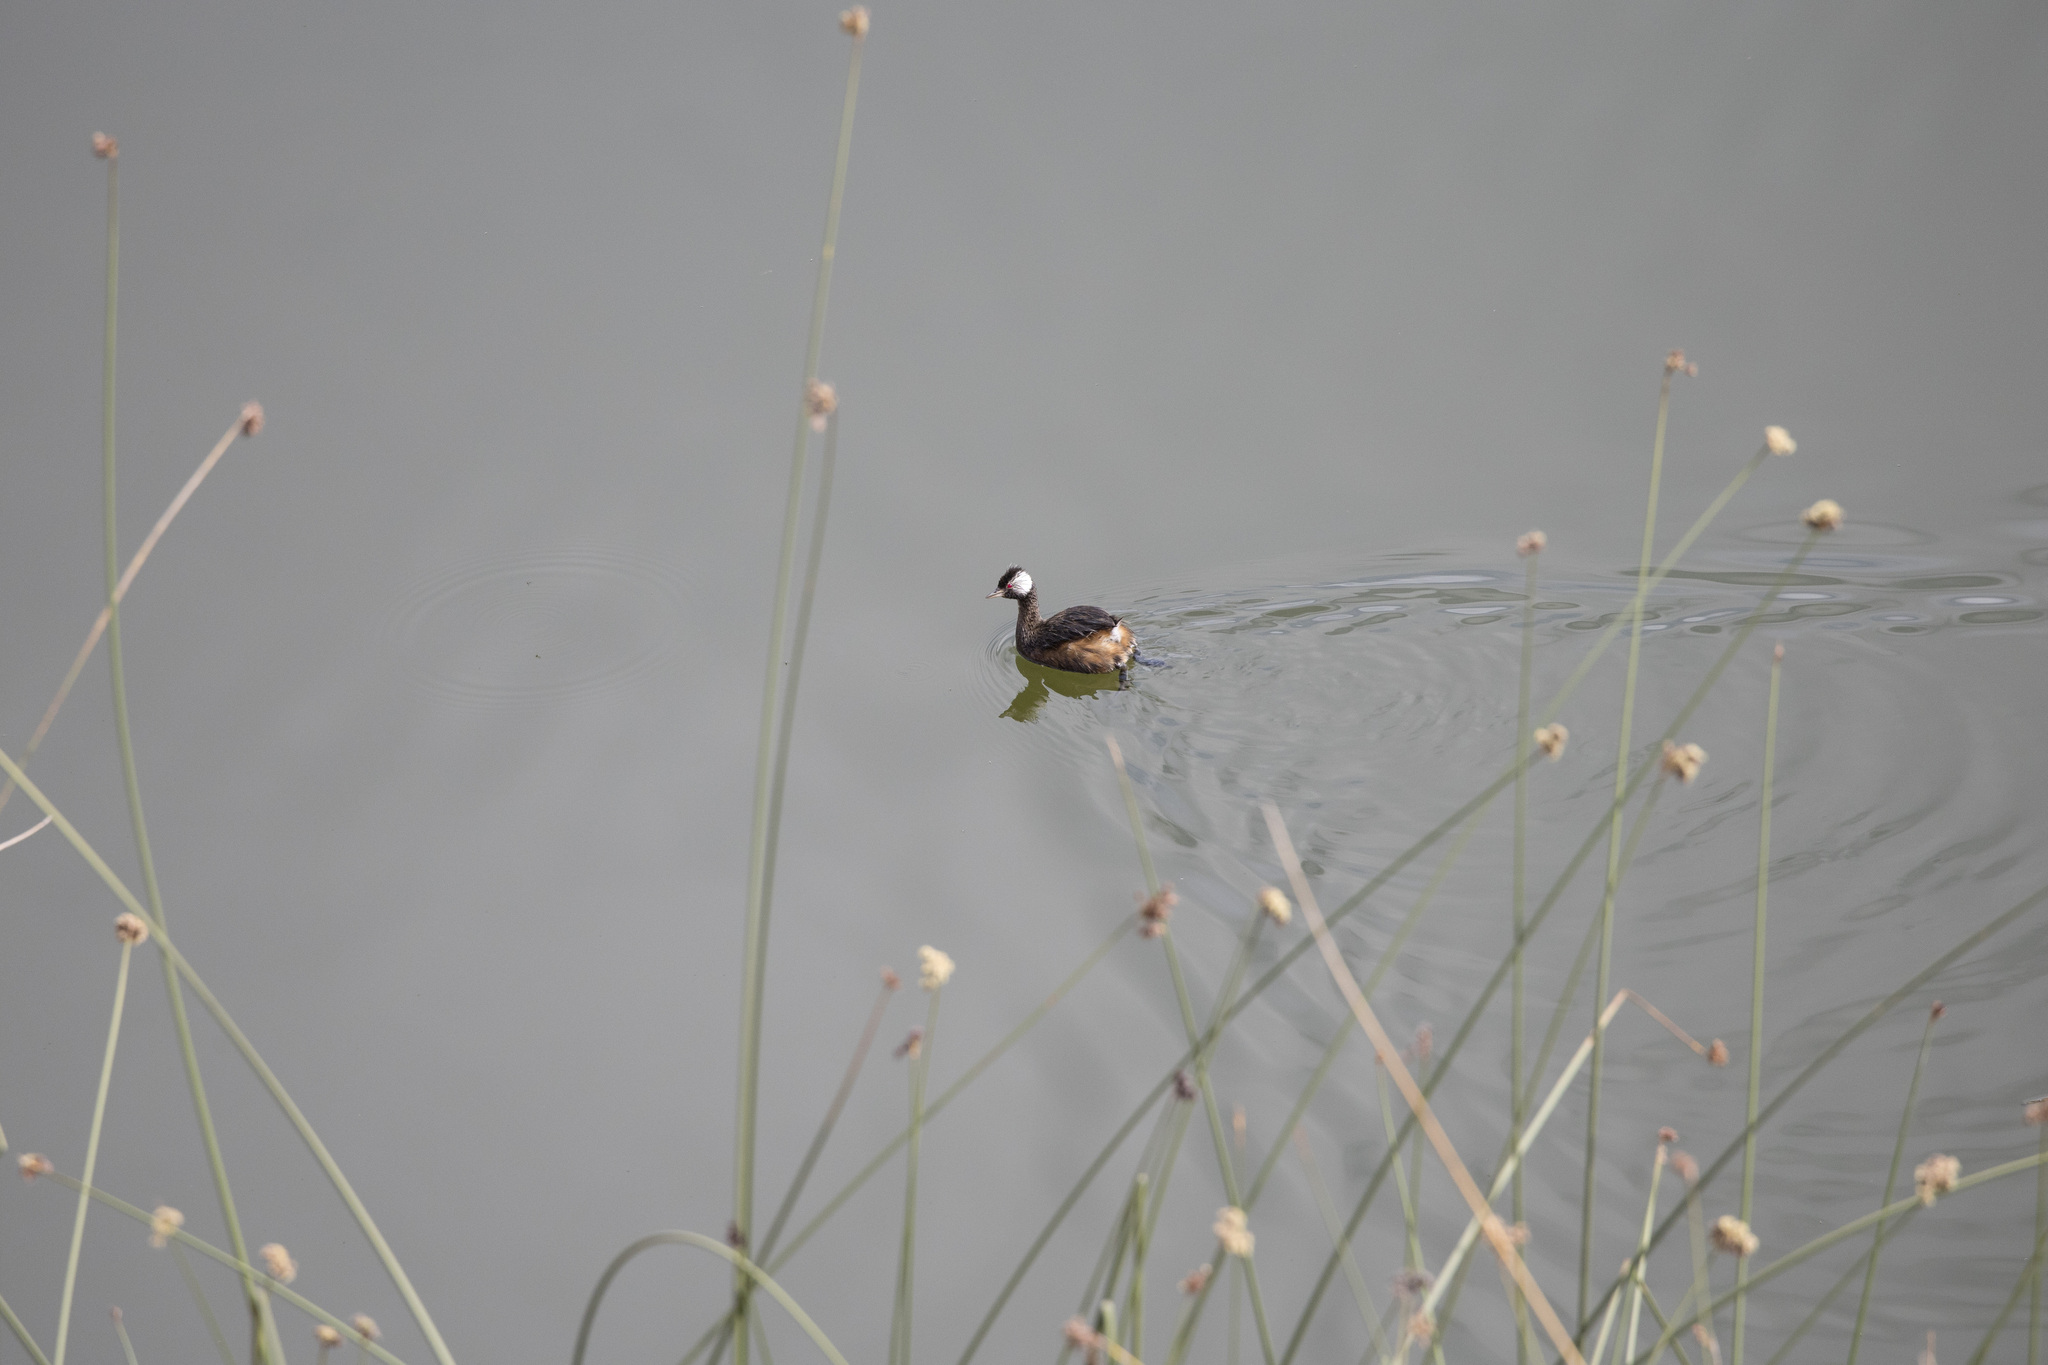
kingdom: Animalia
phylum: Chordata
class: Aves
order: Podicipediformes
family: Podicipedidae
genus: Rollandia
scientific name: Rollandia rolland
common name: White-tufted grebe
